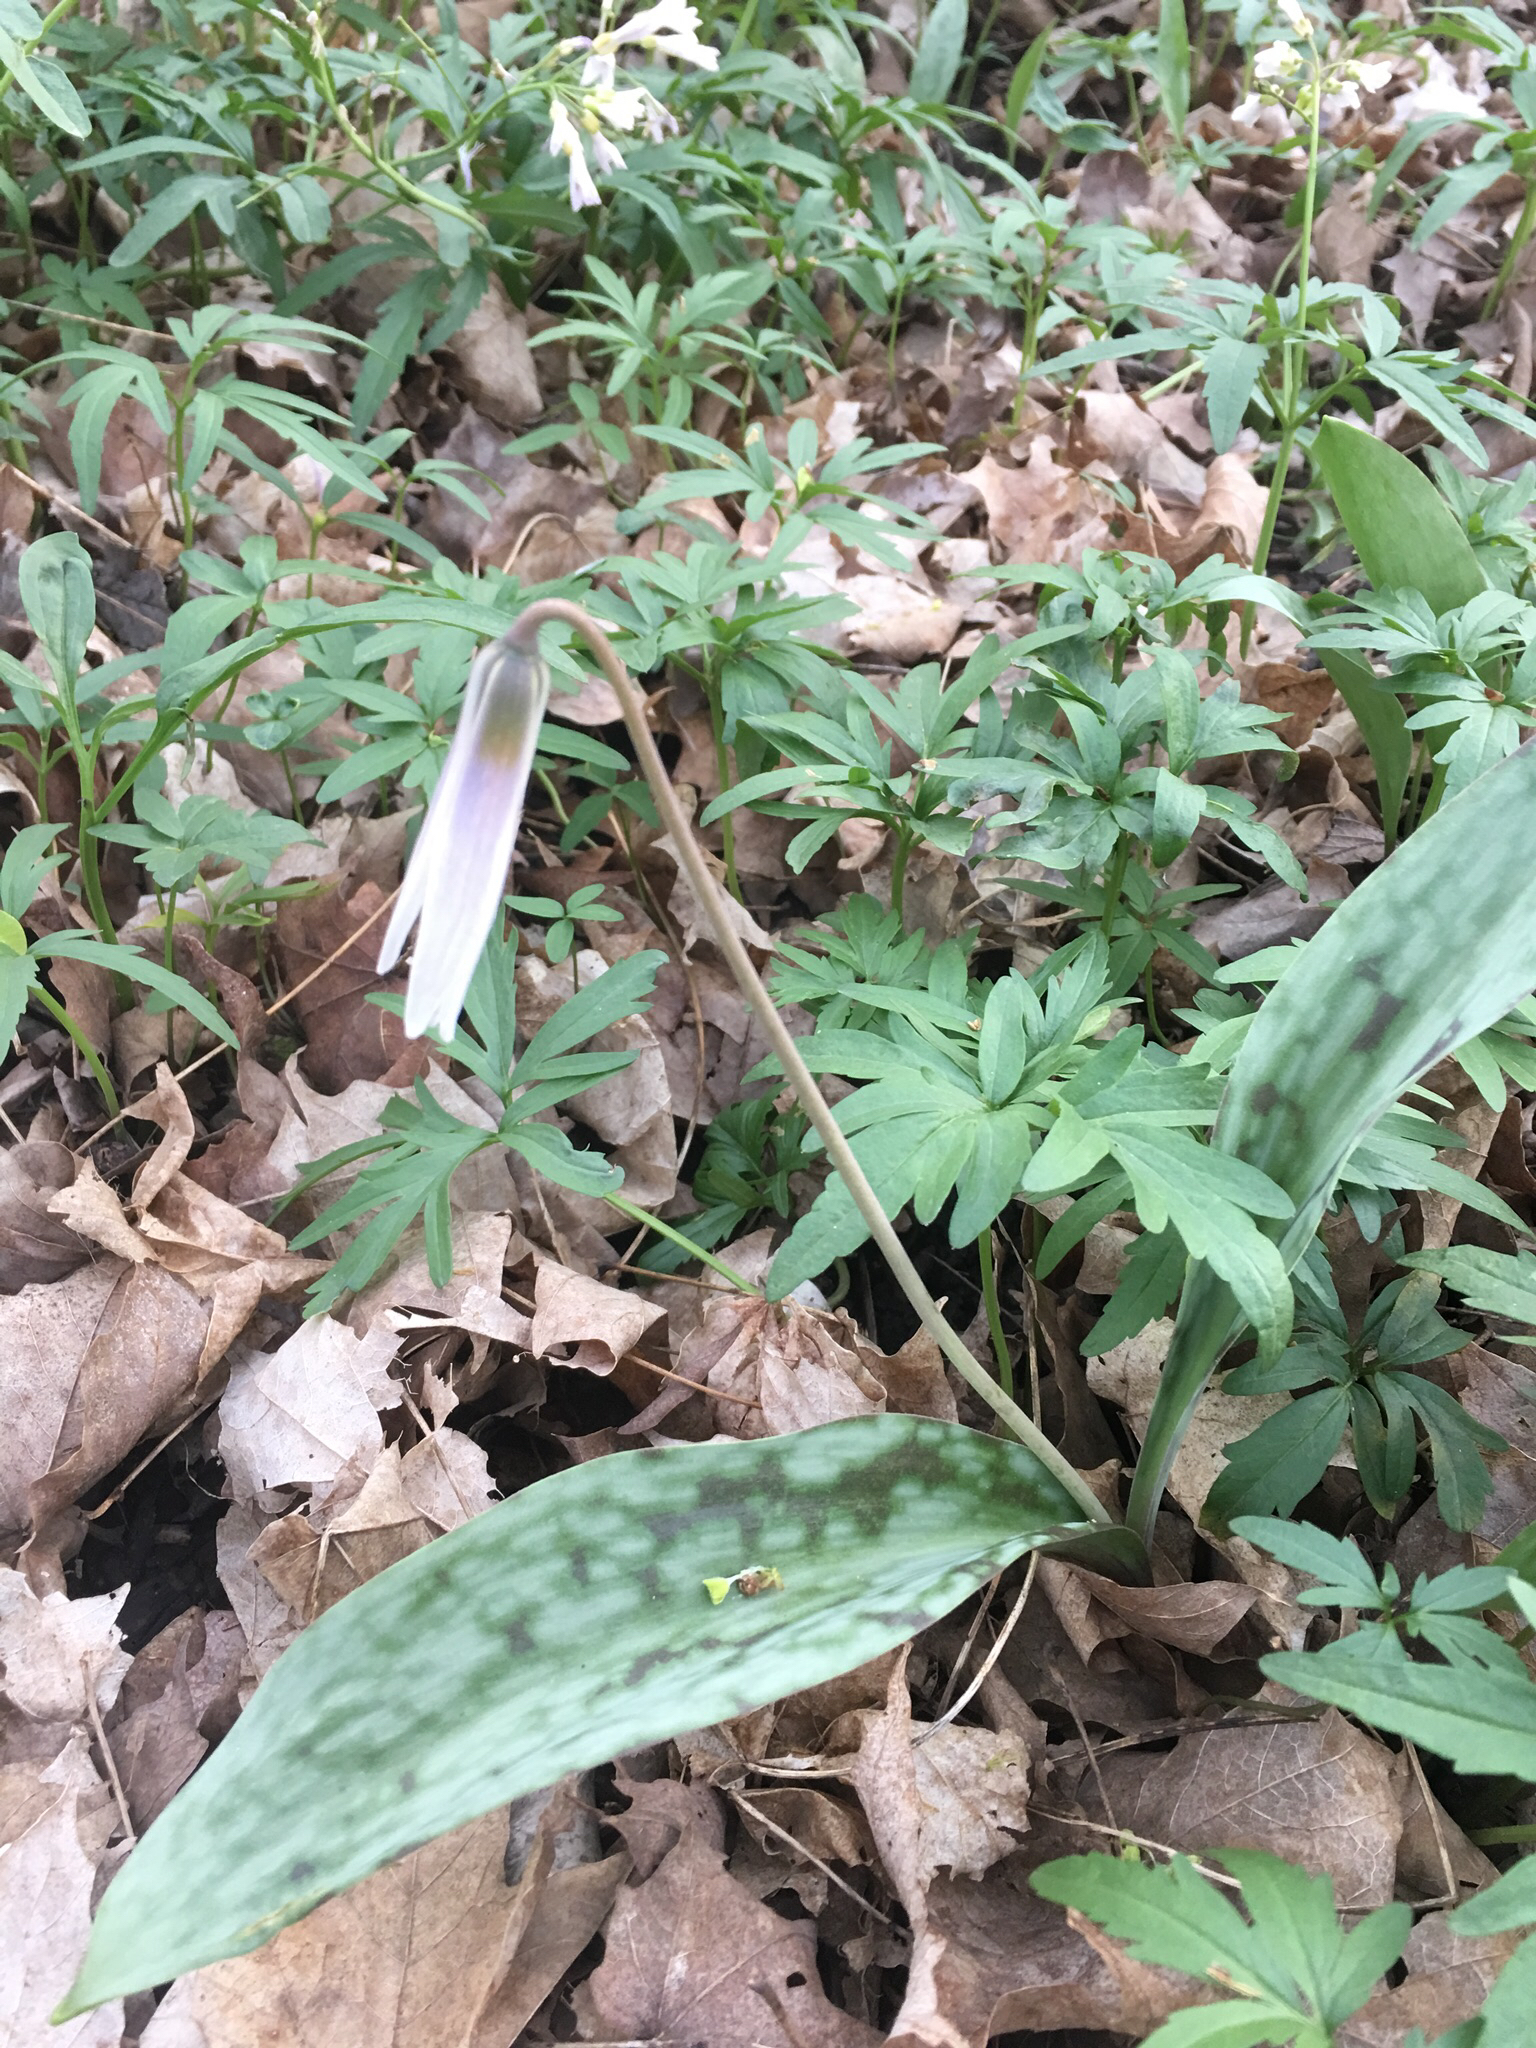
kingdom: Plantae
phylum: Tracheophyta
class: Liliopsida
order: Liliales
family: Liliaceae
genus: Erythronium
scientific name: Erythronium albidum
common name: White trout-lily
